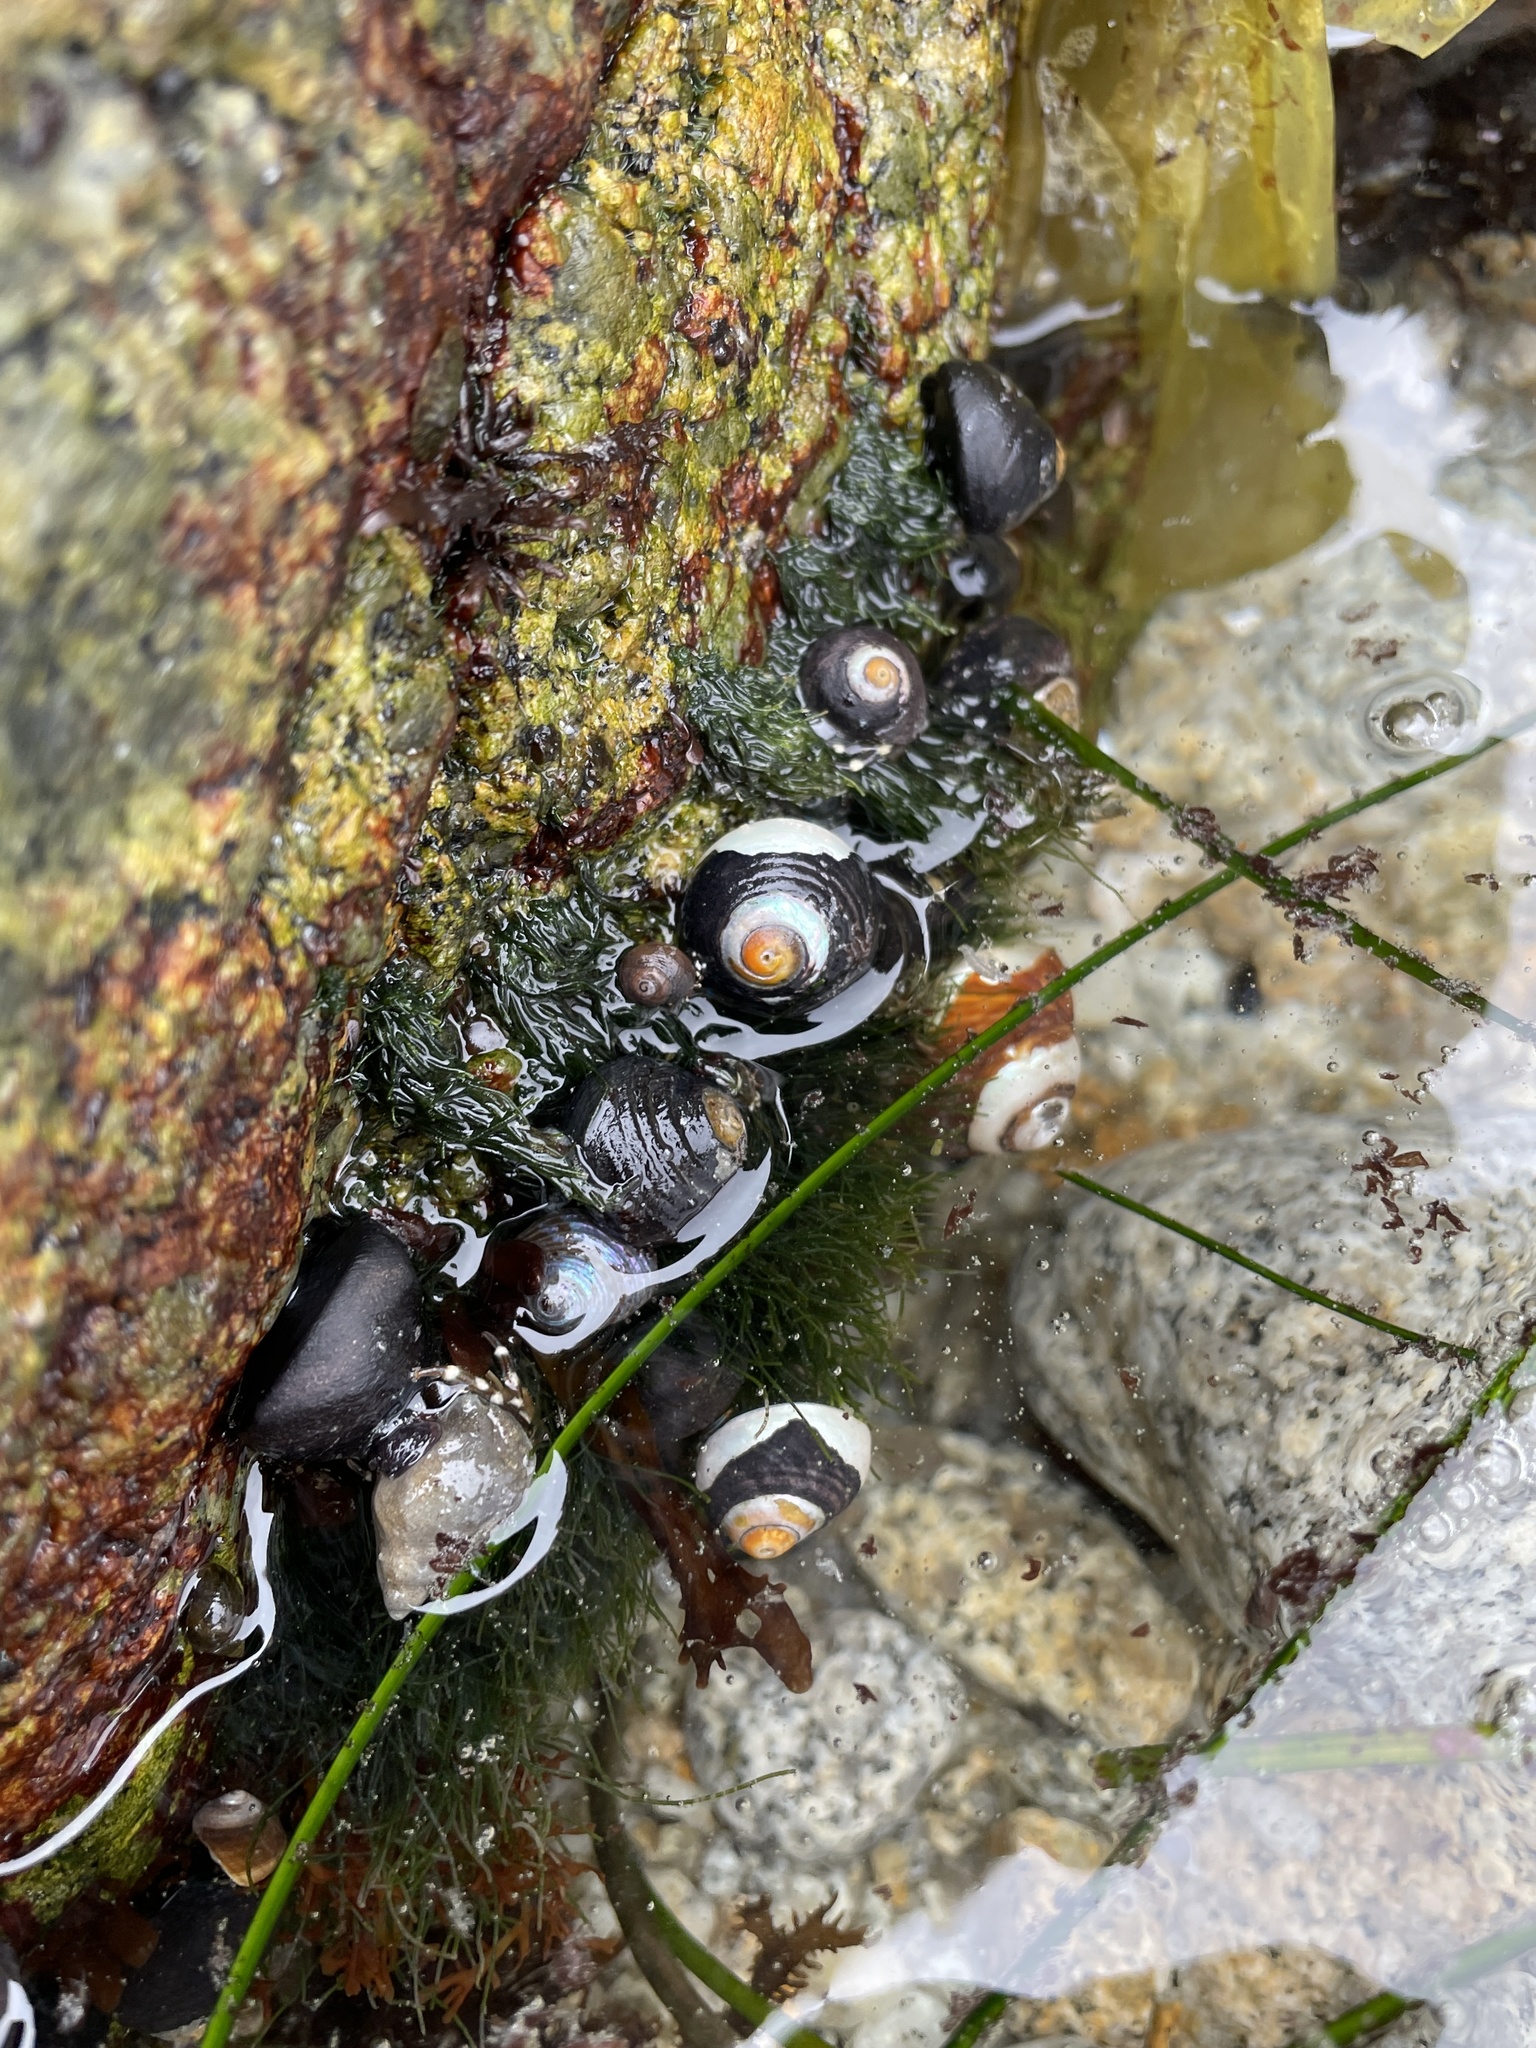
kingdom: Animalia
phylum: Mollusca
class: Gastropoda
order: Trochida
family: Tegulidae
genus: Tegula
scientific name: Tegula funebralis
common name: Black tegula
